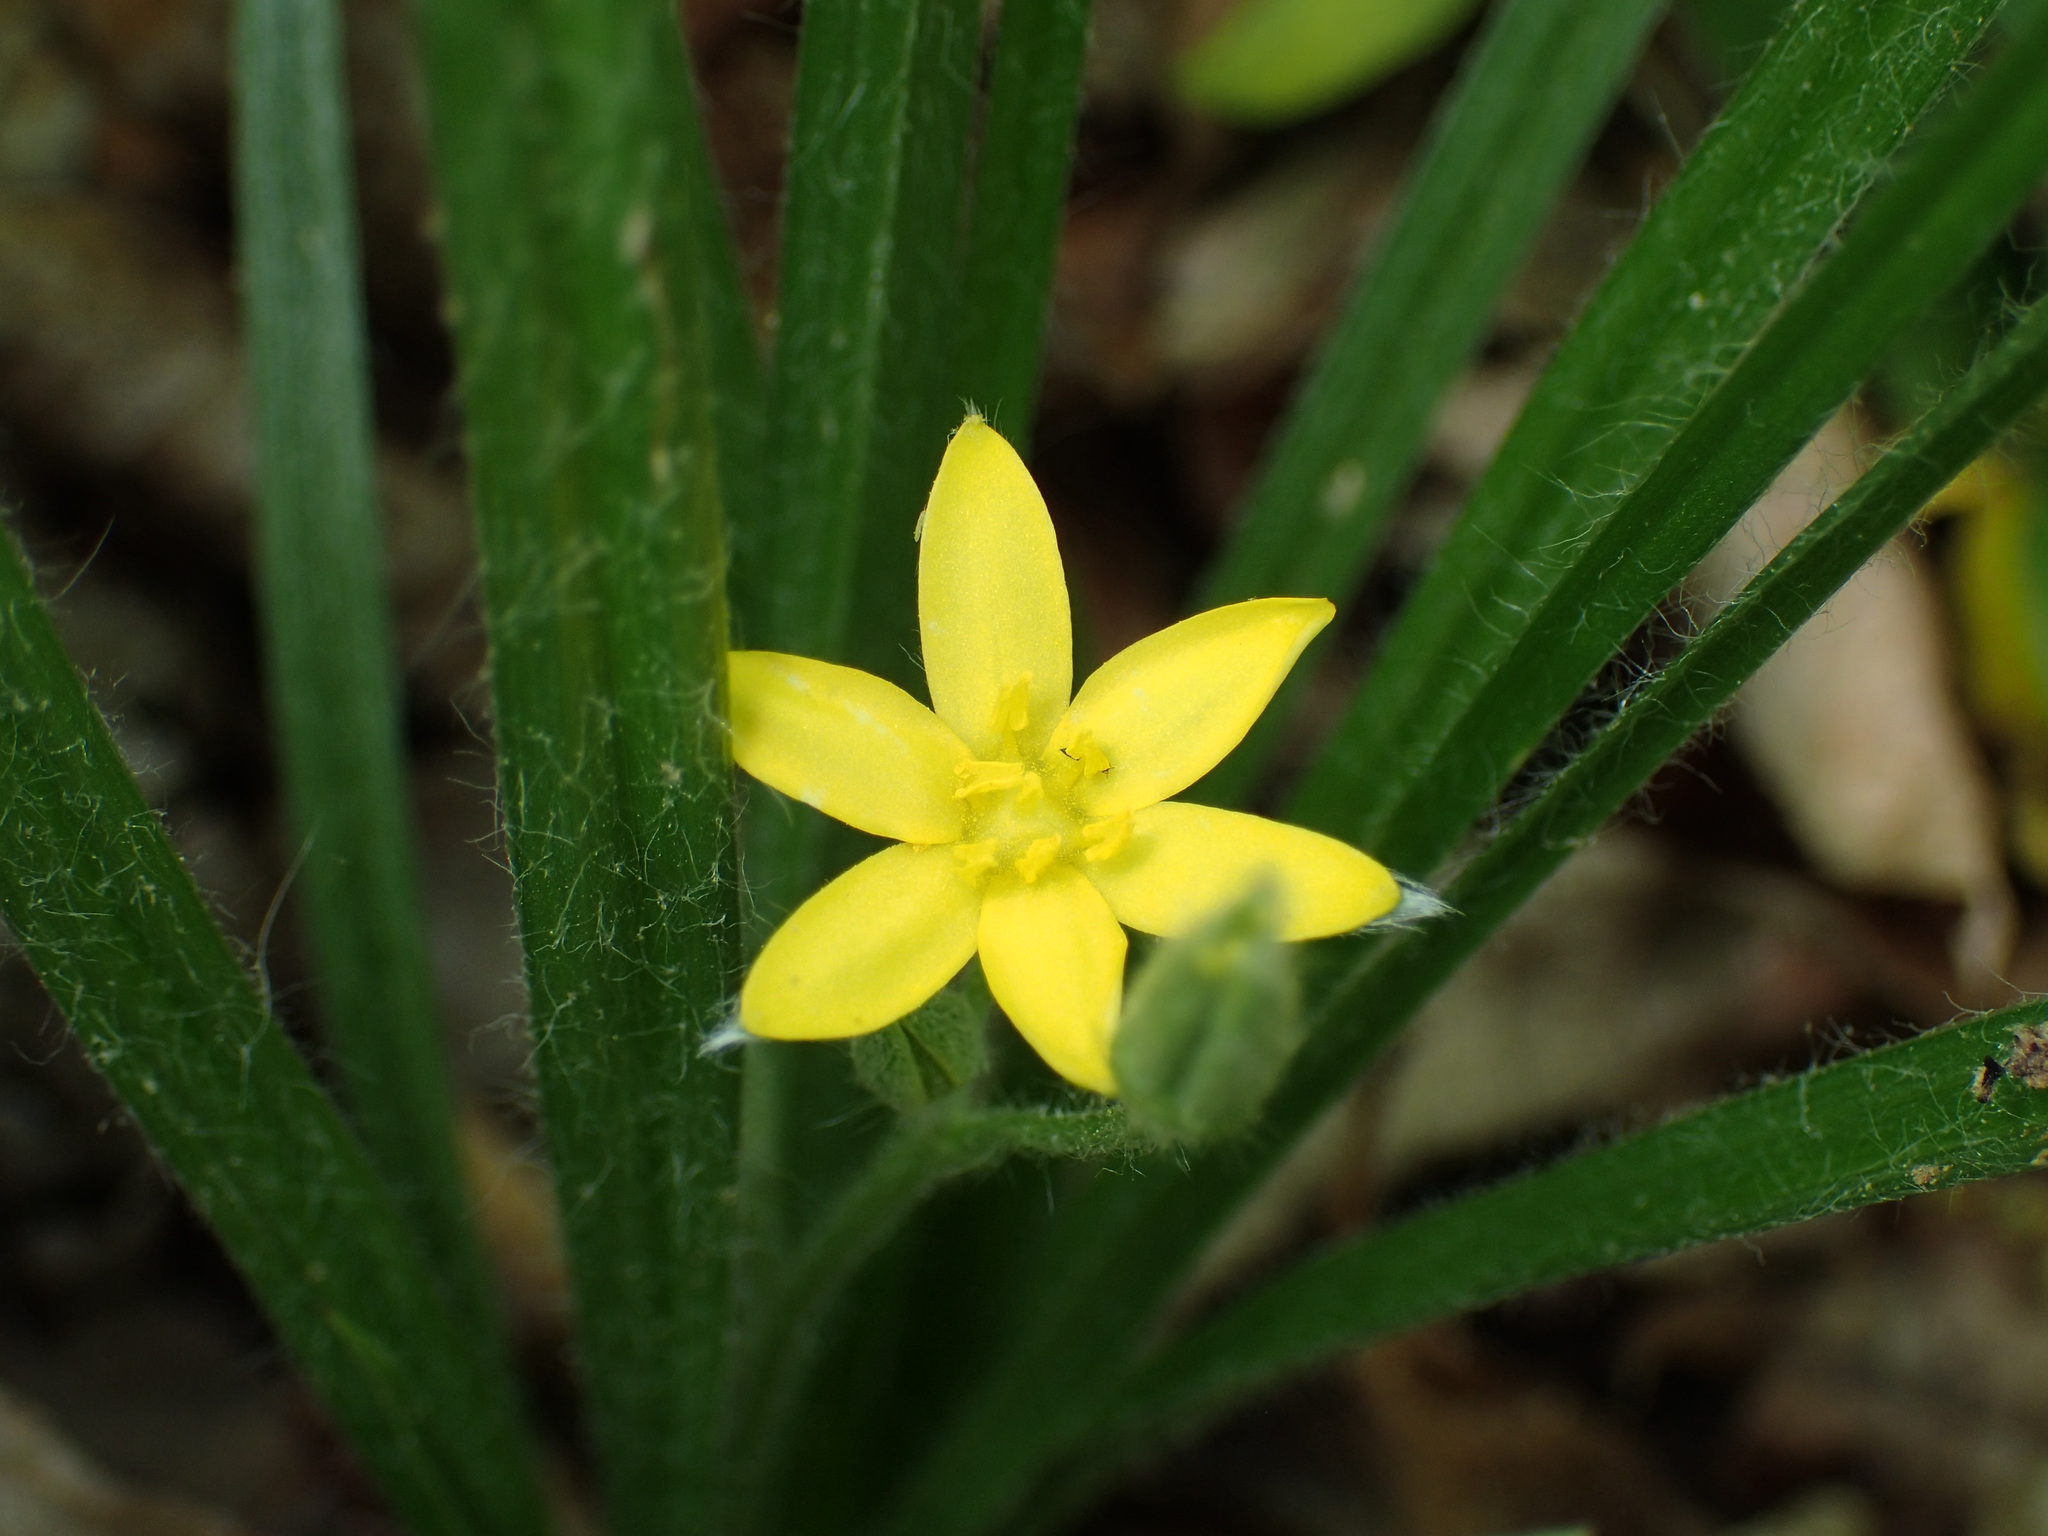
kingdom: Plantae
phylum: Tracheophyta
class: Liliopsida
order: Asparagales
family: Hypoxidaceae
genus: Hypoxis
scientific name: Hypoxis hirsuta
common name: Common goldstar
